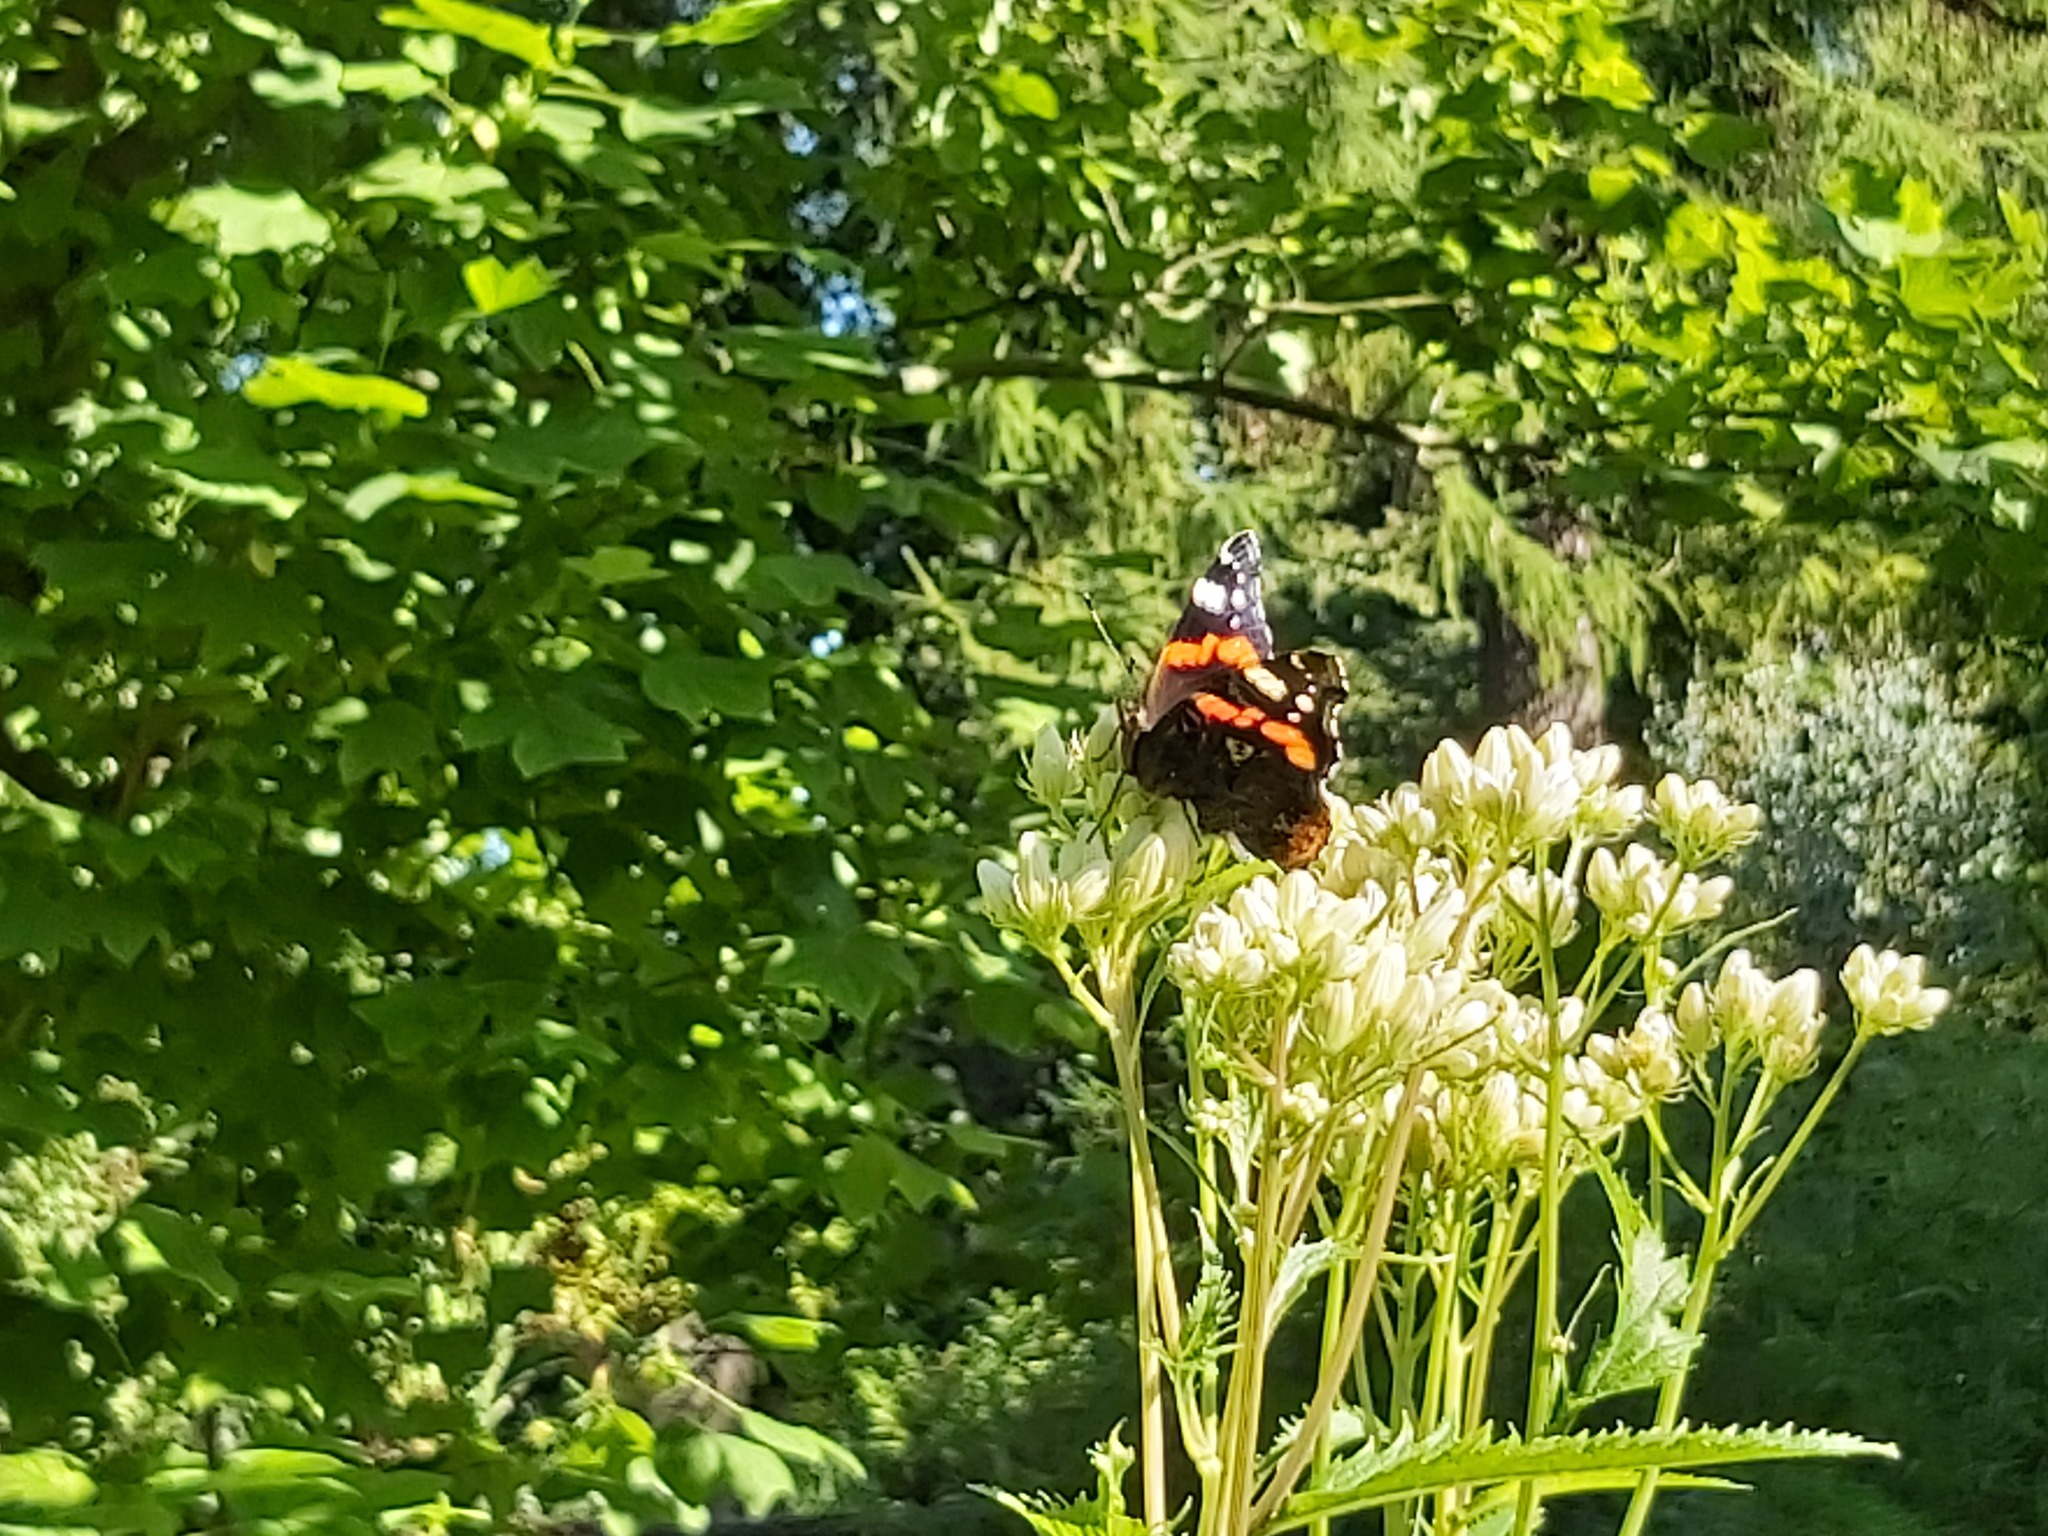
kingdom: Animalia
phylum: Arthropoda
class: Insecta
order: Lepidoptera
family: Nymphalidae
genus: Vanessa
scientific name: Vanessa atalanta
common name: Red admiral
